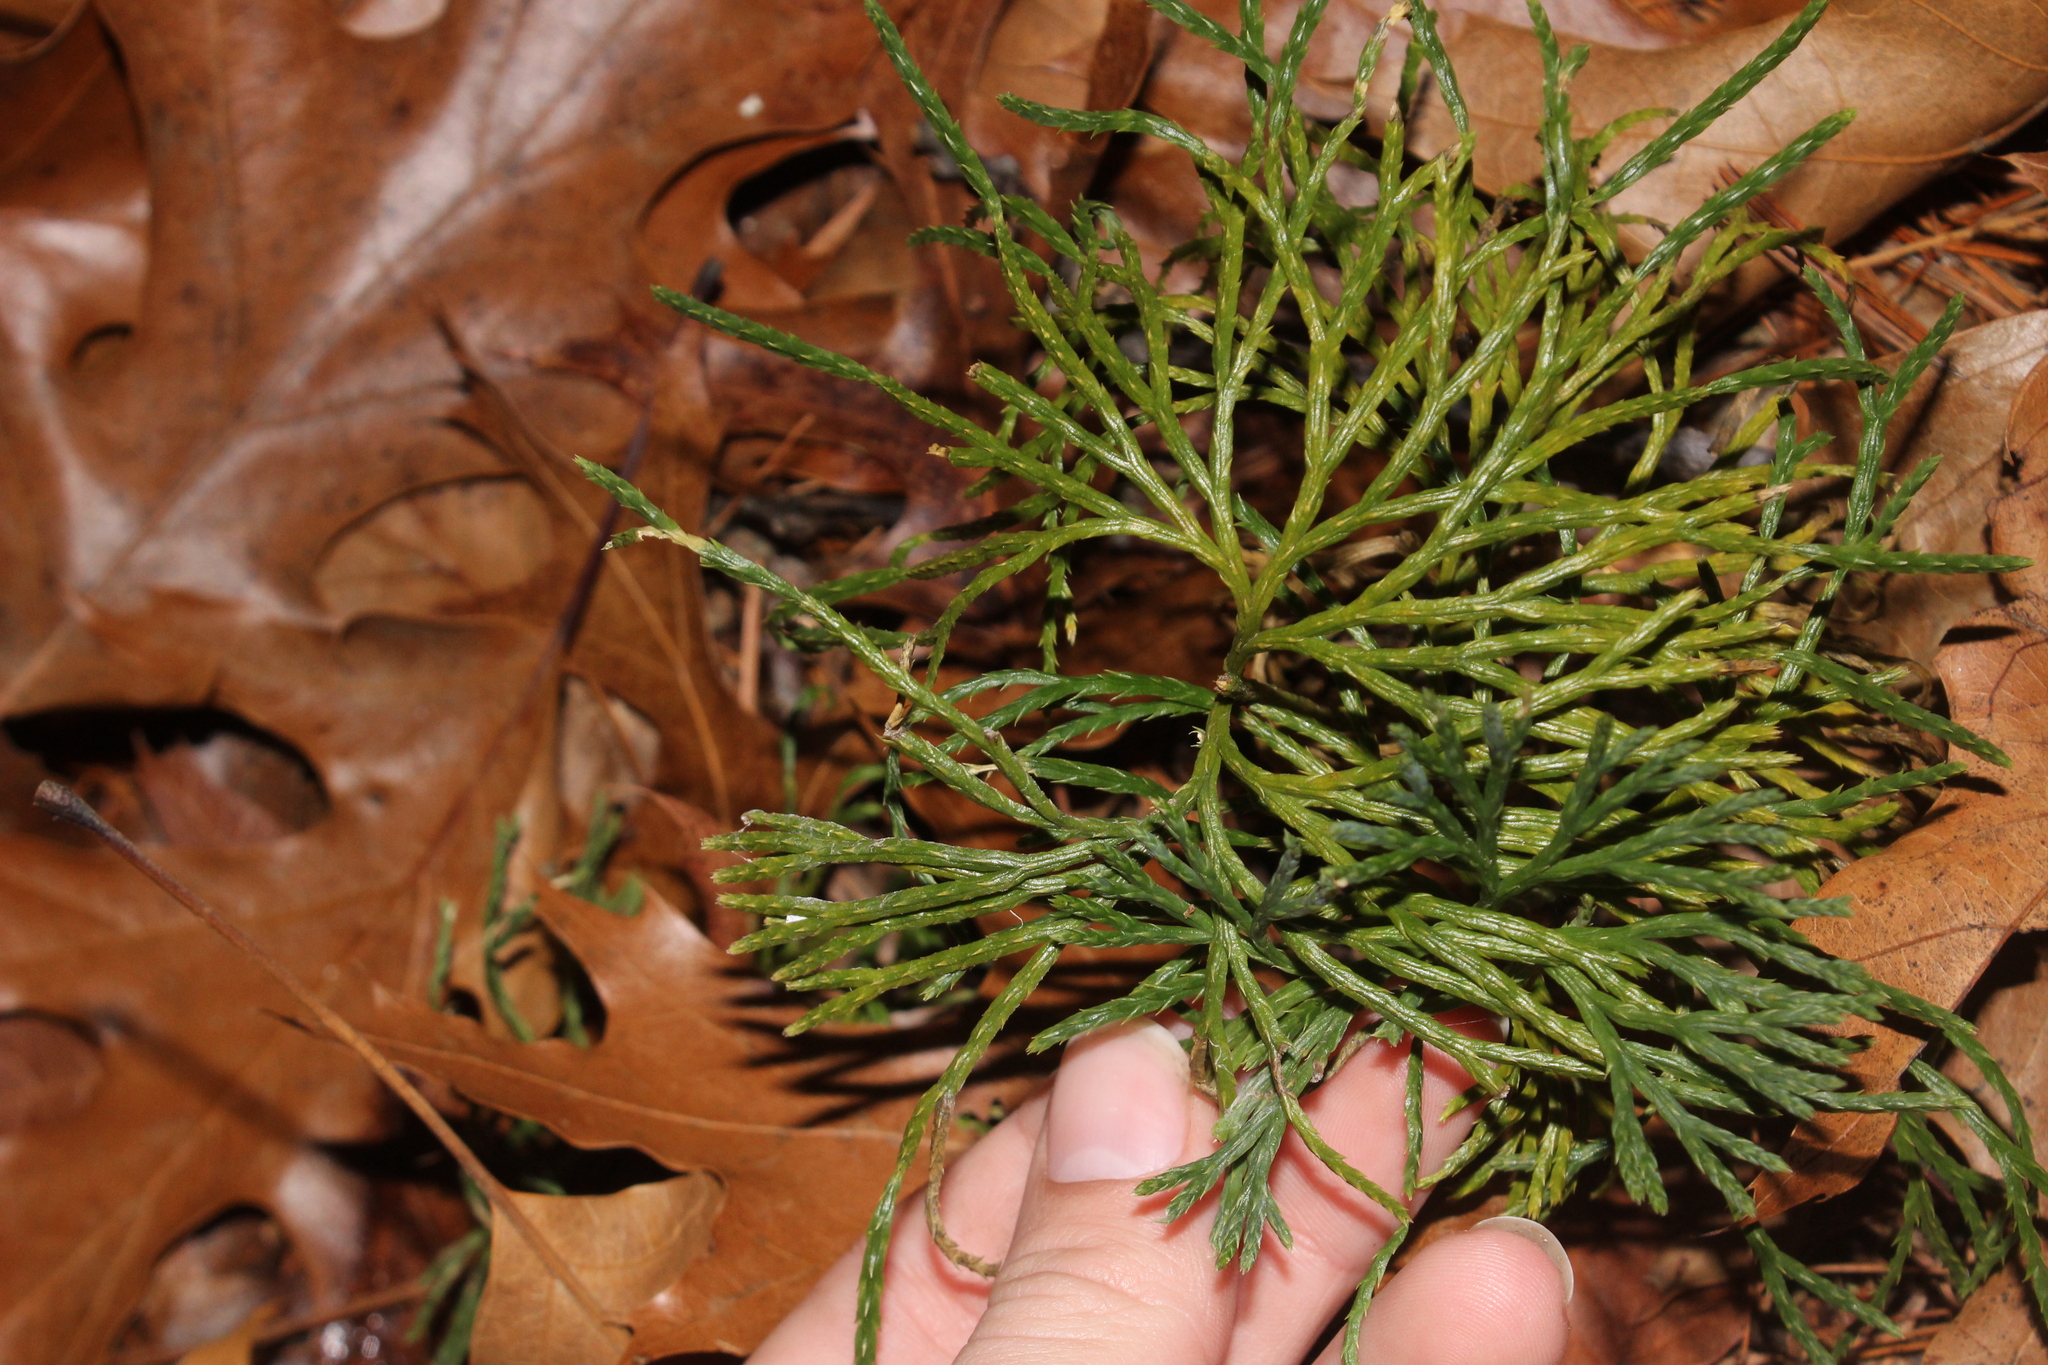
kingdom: Plantae
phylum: Tracheophyta
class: Lycopodiopsida
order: Lycopodiales
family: Lycopodiaceae
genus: Diphasiastrum
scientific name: Diphasiastrum digitatum
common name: Southern running-pine
